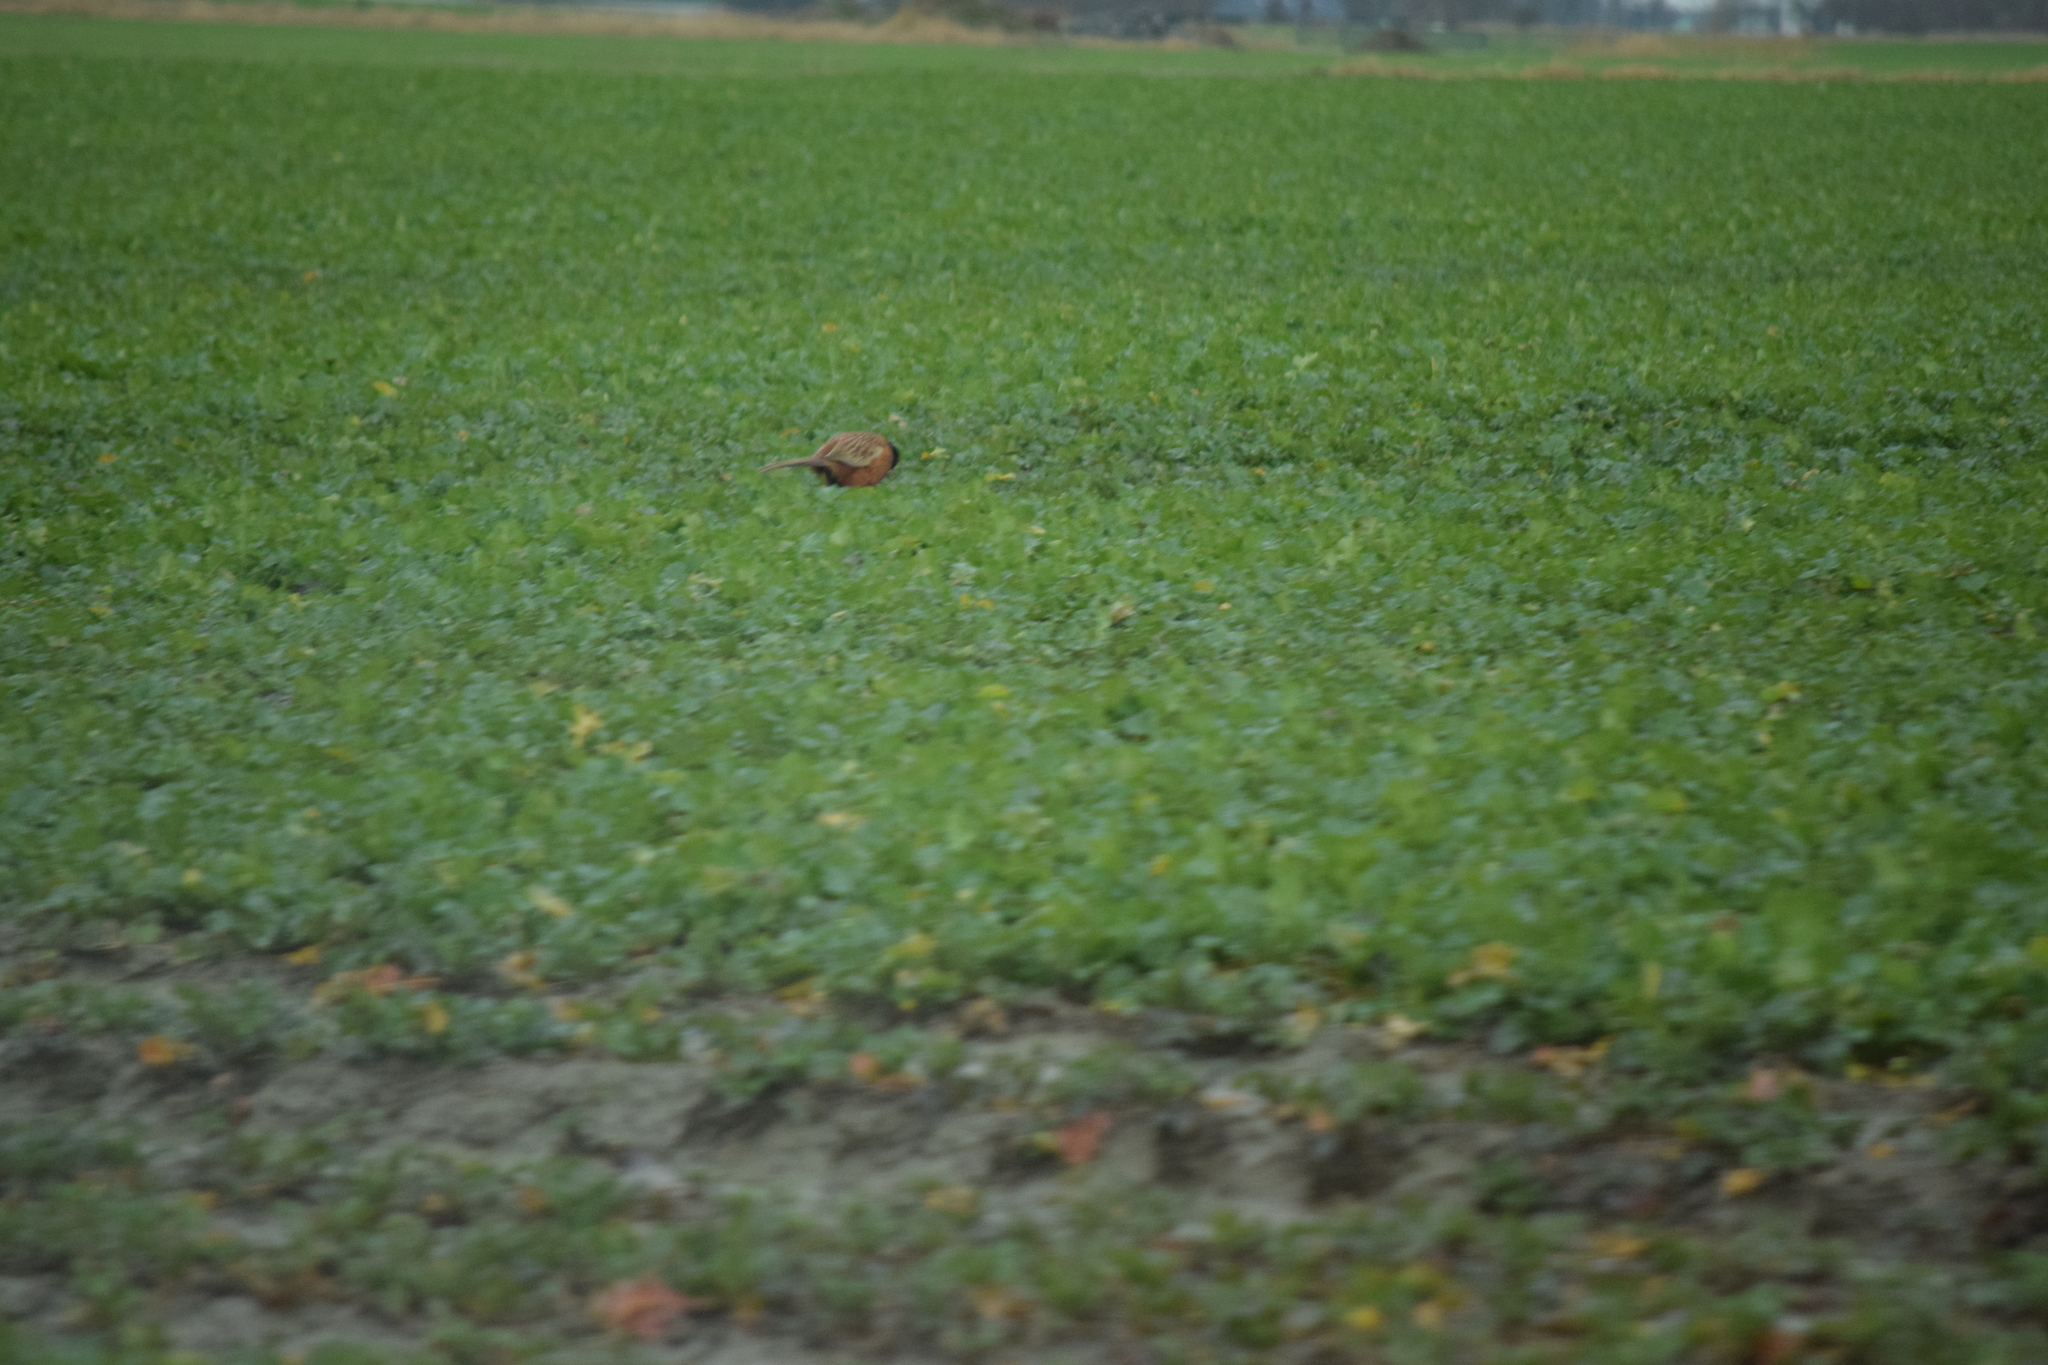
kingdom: Animalia
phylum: Chordata
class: Aves
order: Galliformes
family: Phasianidae
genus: Phasianus
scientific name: Phasianus colchicus
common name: Common pheasant
